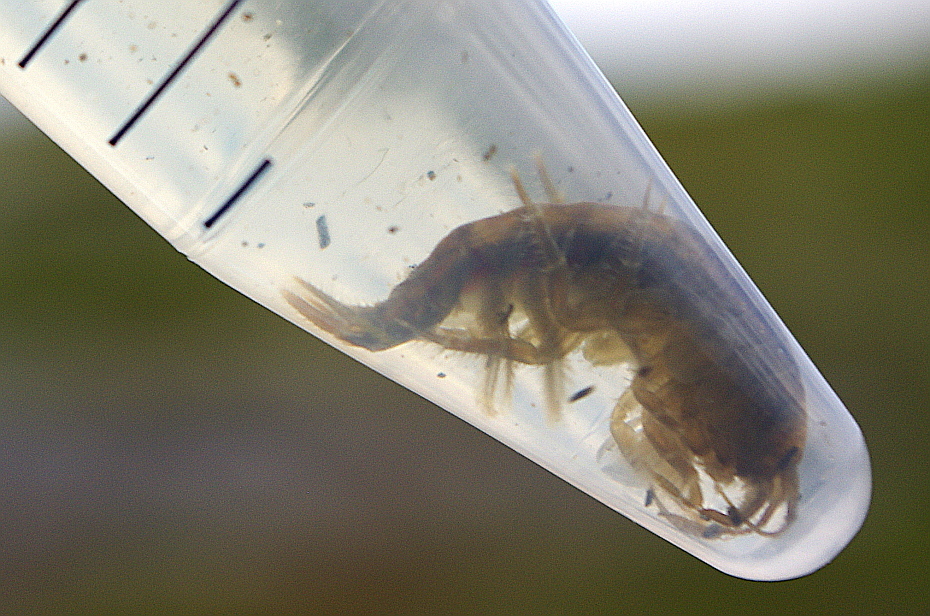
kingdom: Animalia
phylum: Arthropoda
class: Malacostraca
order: Amphipoda
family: Gammaridae
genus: Gammarus
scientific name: Gammarus oceanicus
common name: Oceanic scud
